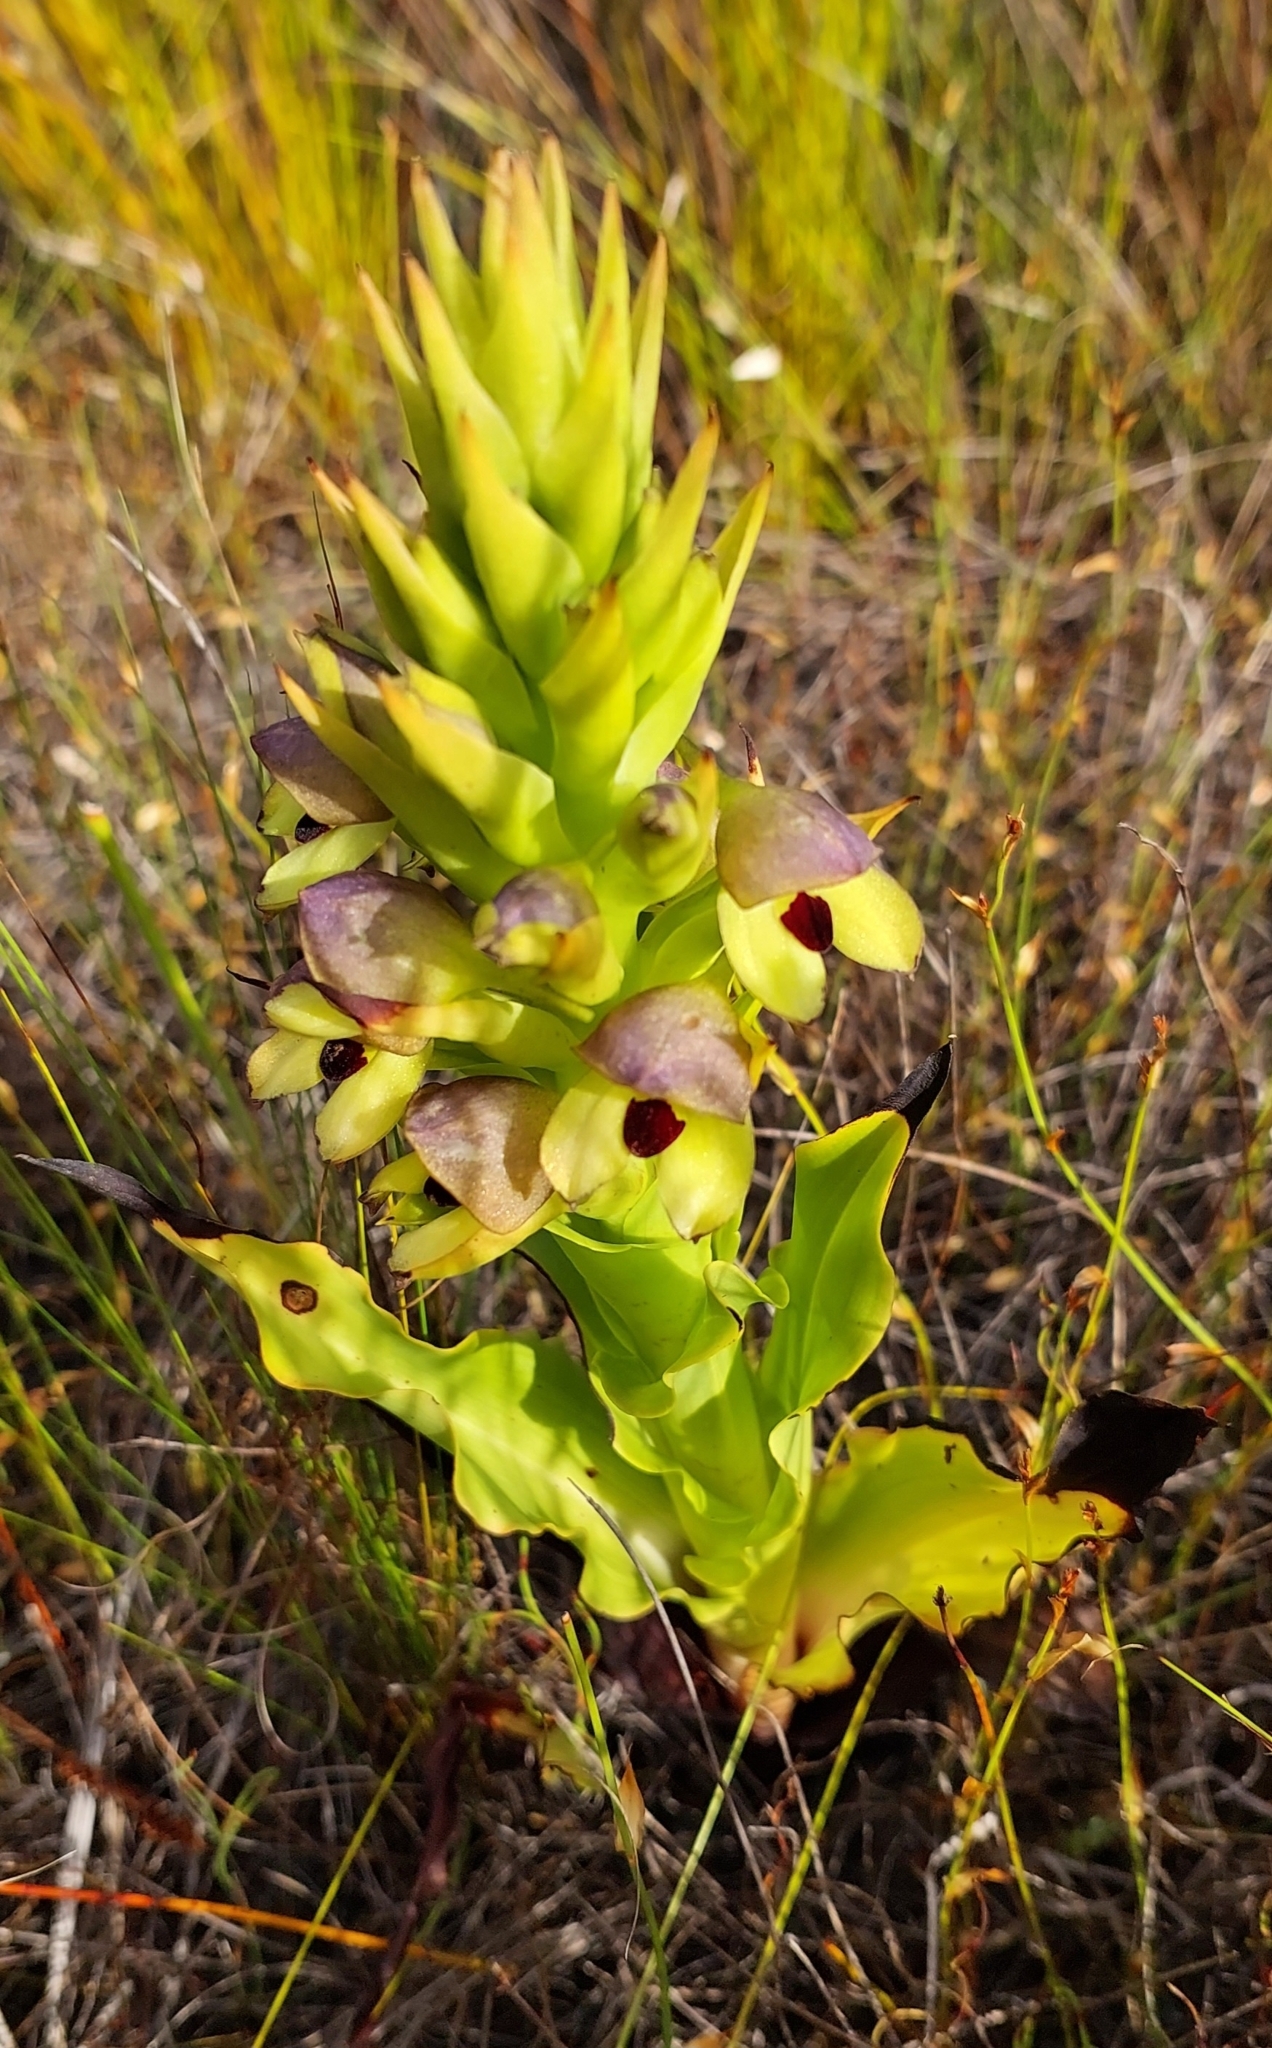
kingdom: Plantae
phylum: Tracheophyta
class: Liliopsida
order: Asparagales
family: Orchidaceae
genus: Disa
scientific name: Disa cornuta
